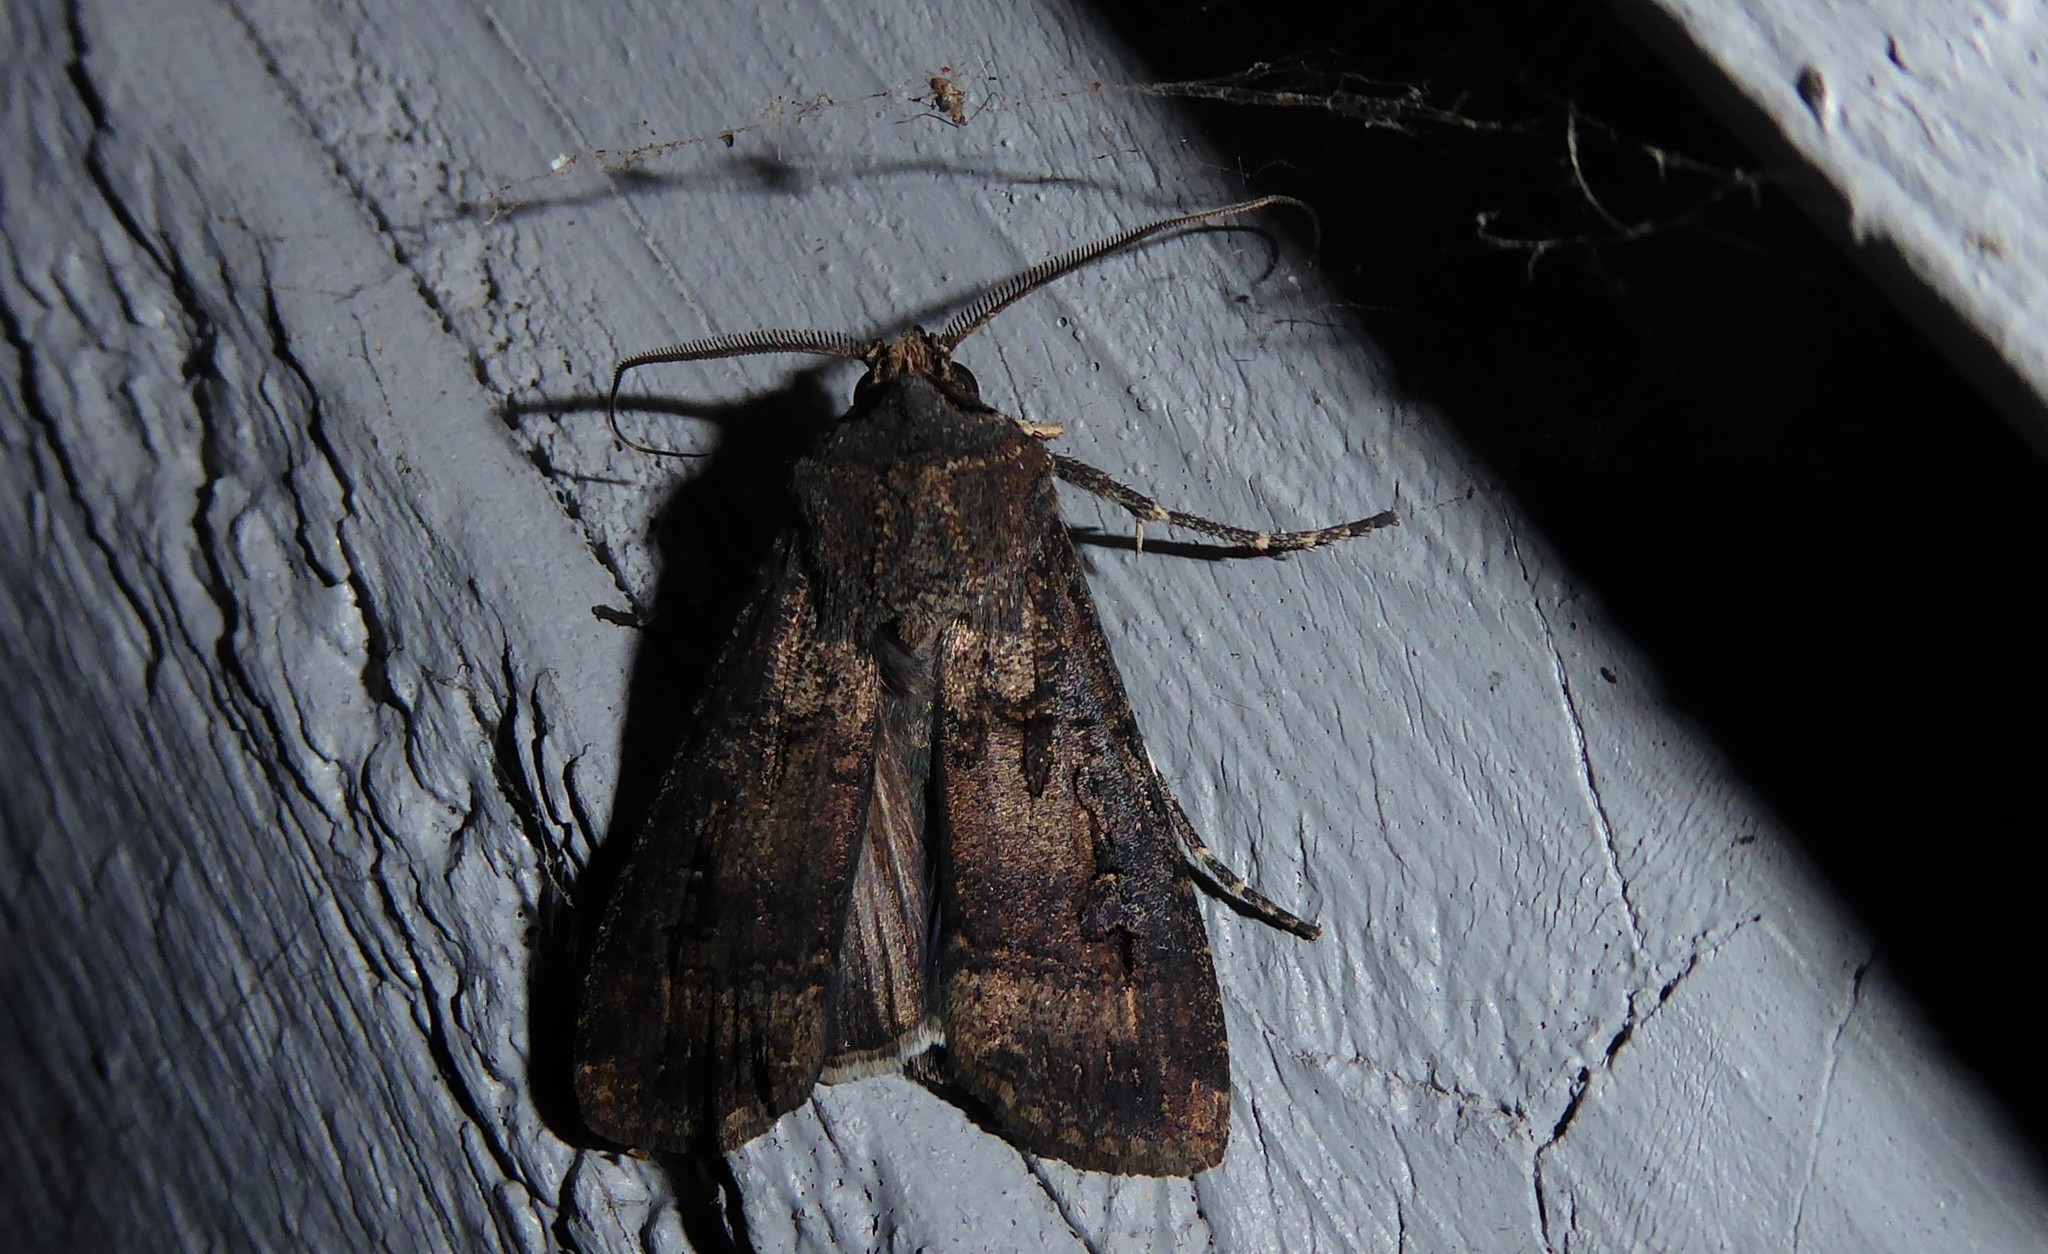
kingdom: Animalia
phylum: Arthropoda
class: Insecta
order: Lepidoptera
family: Noctuidae
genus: Agrotis
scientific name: Agrotis ipsilon
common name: Dark sword-grass
